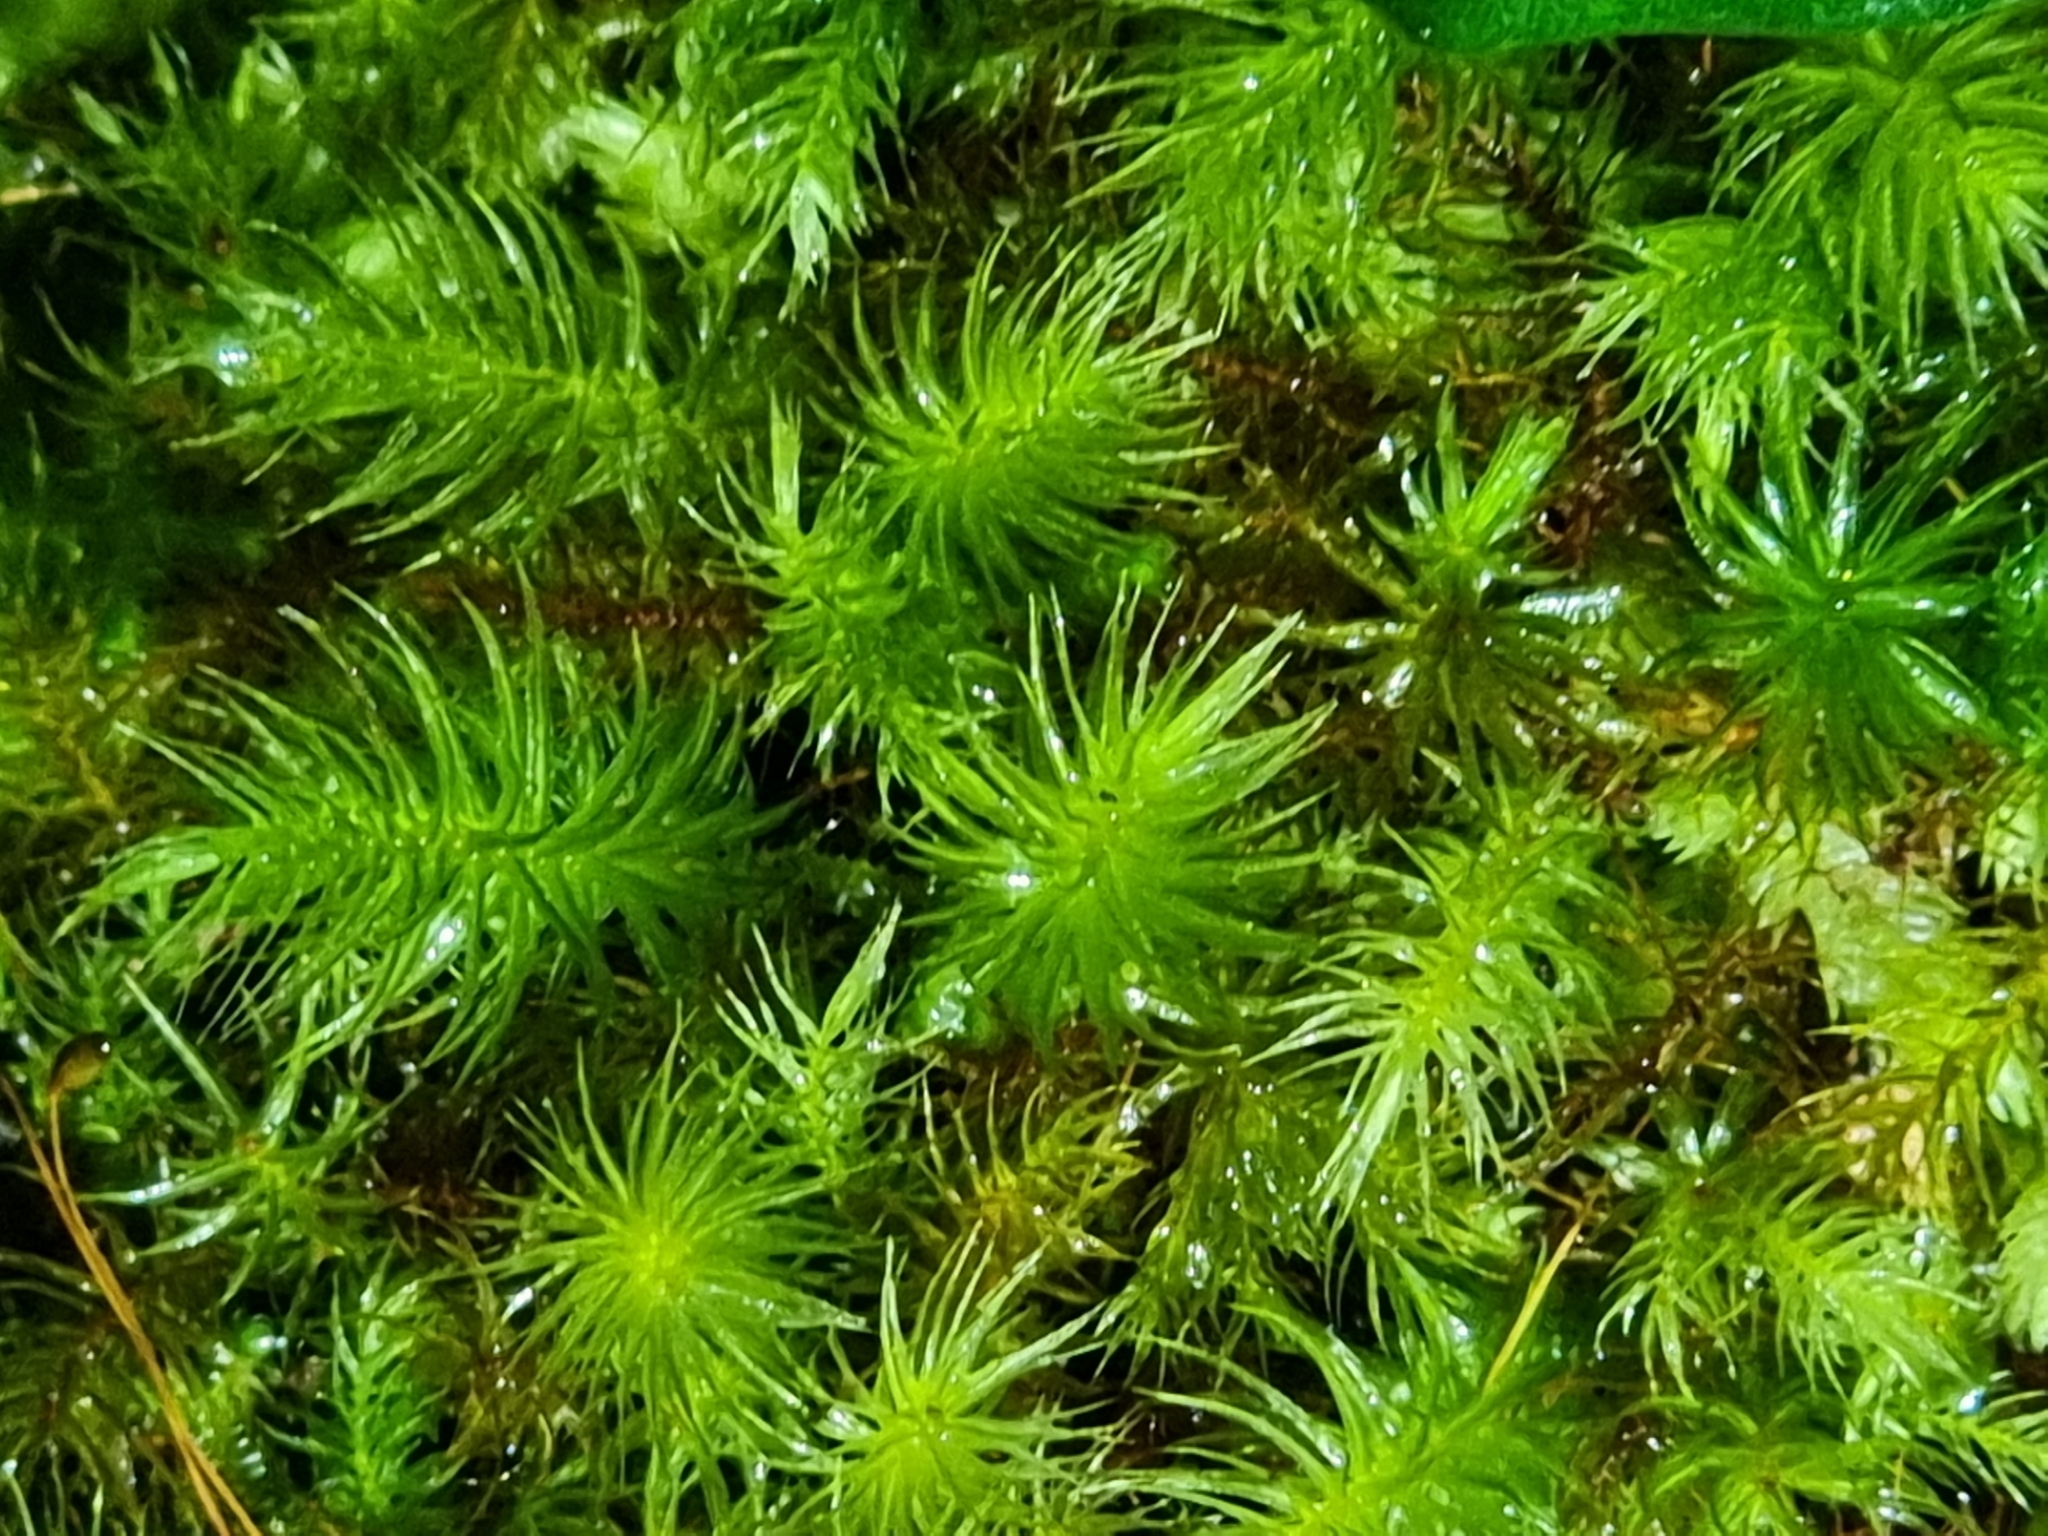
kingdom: Plantae
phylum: Bryophyta
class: Bryopsida
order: Rhizogoniales
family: Calomniaceae
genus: Pyrrhobryum
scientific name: Pyrrhobryum paramattense
